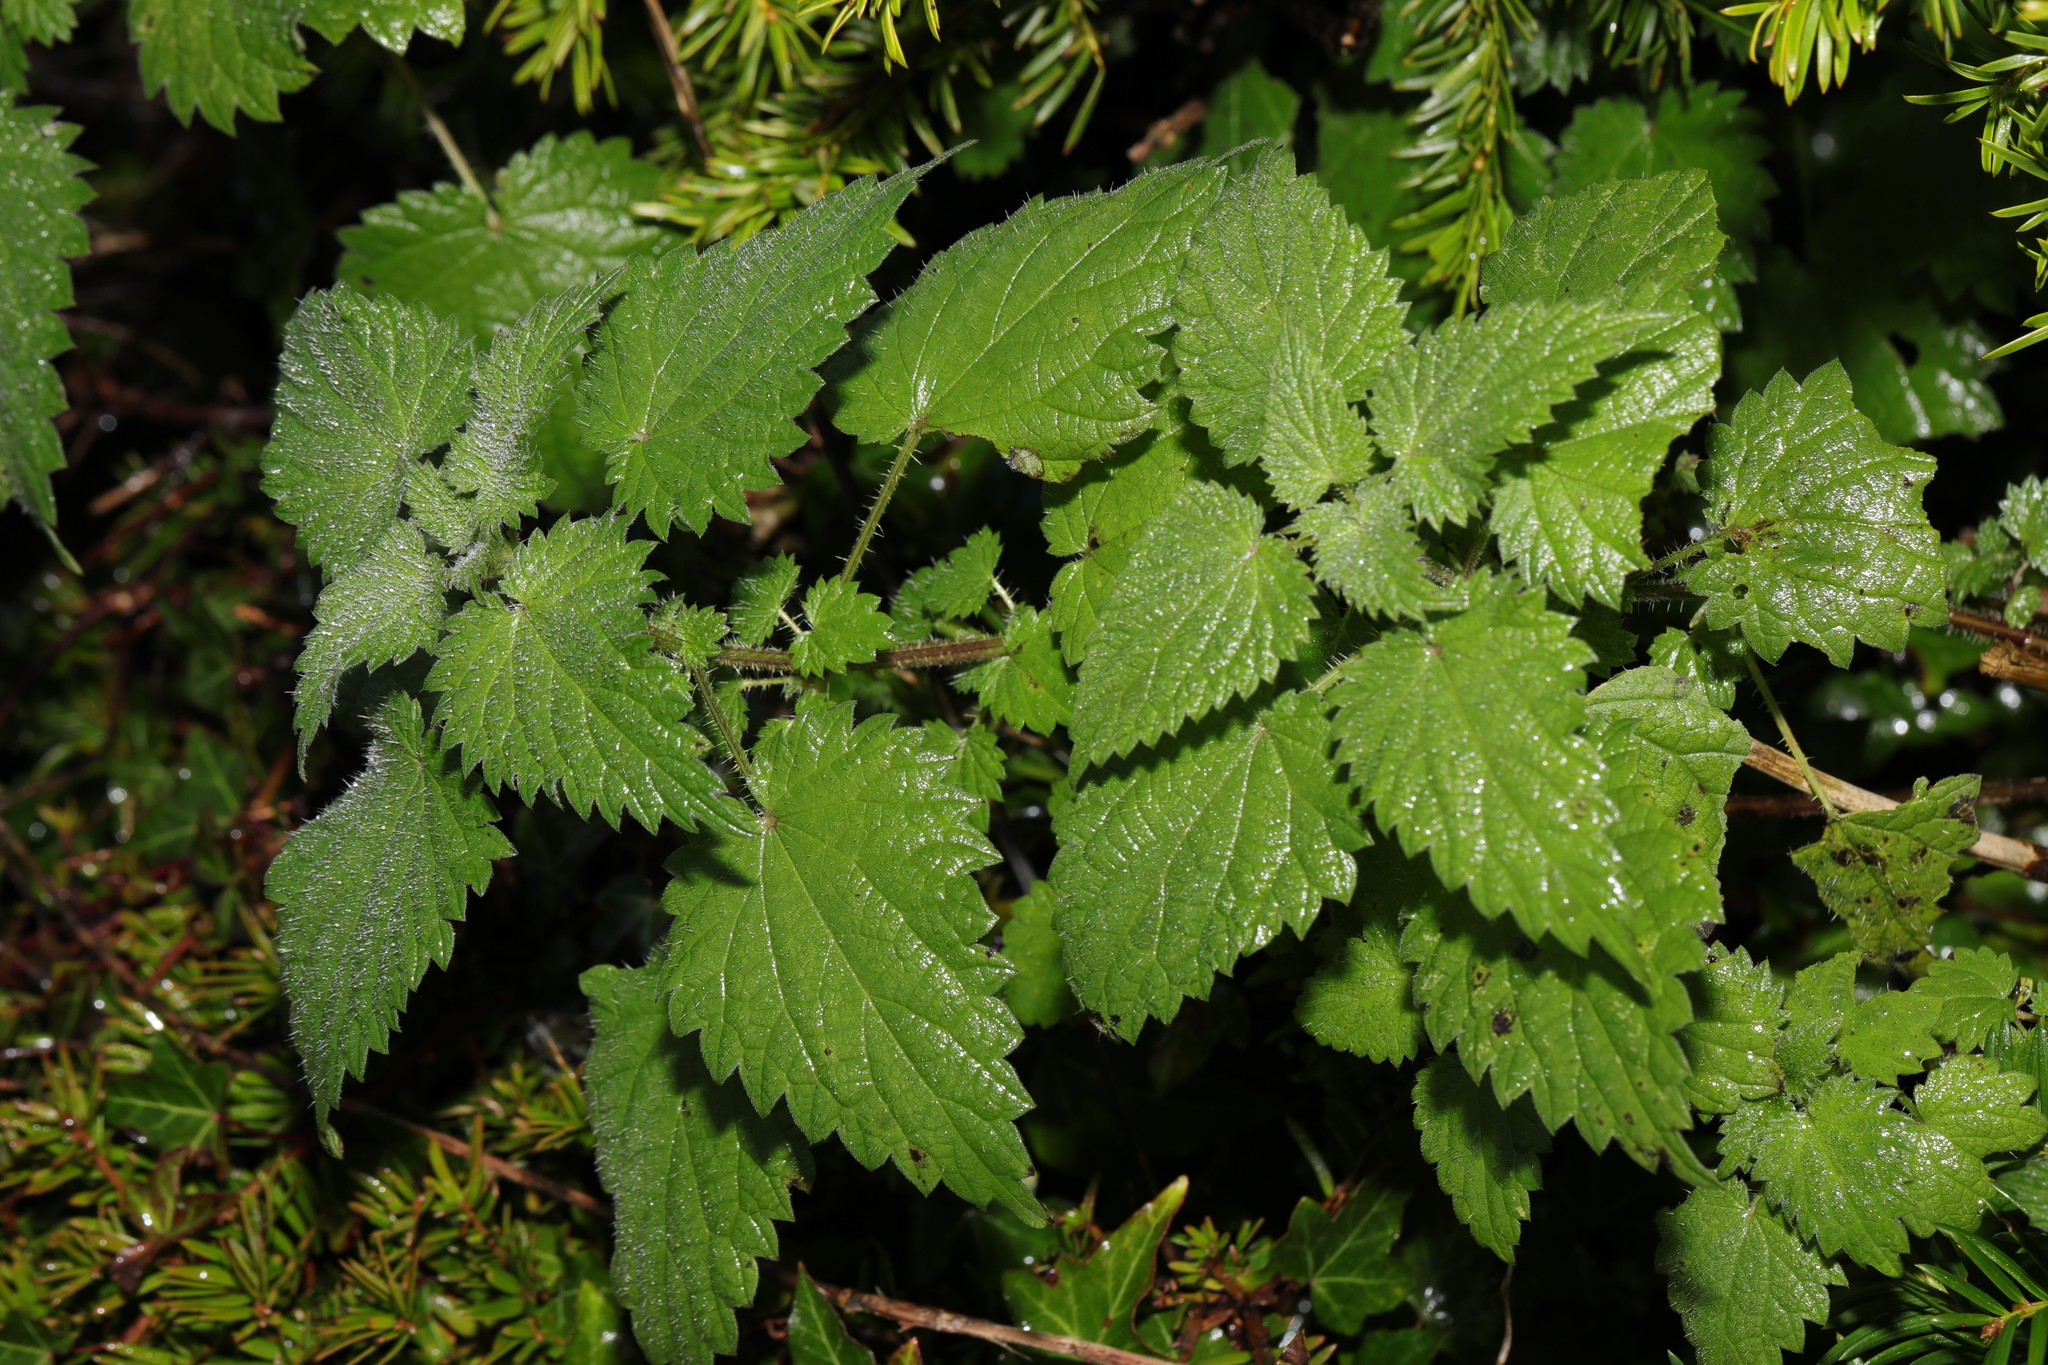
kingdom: Plantae
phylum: Tracheophyta
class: Magnoliopsida
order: Rosales
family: Urticaceae
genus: Urtica
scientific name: Urtica dioica
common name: Common nettle
